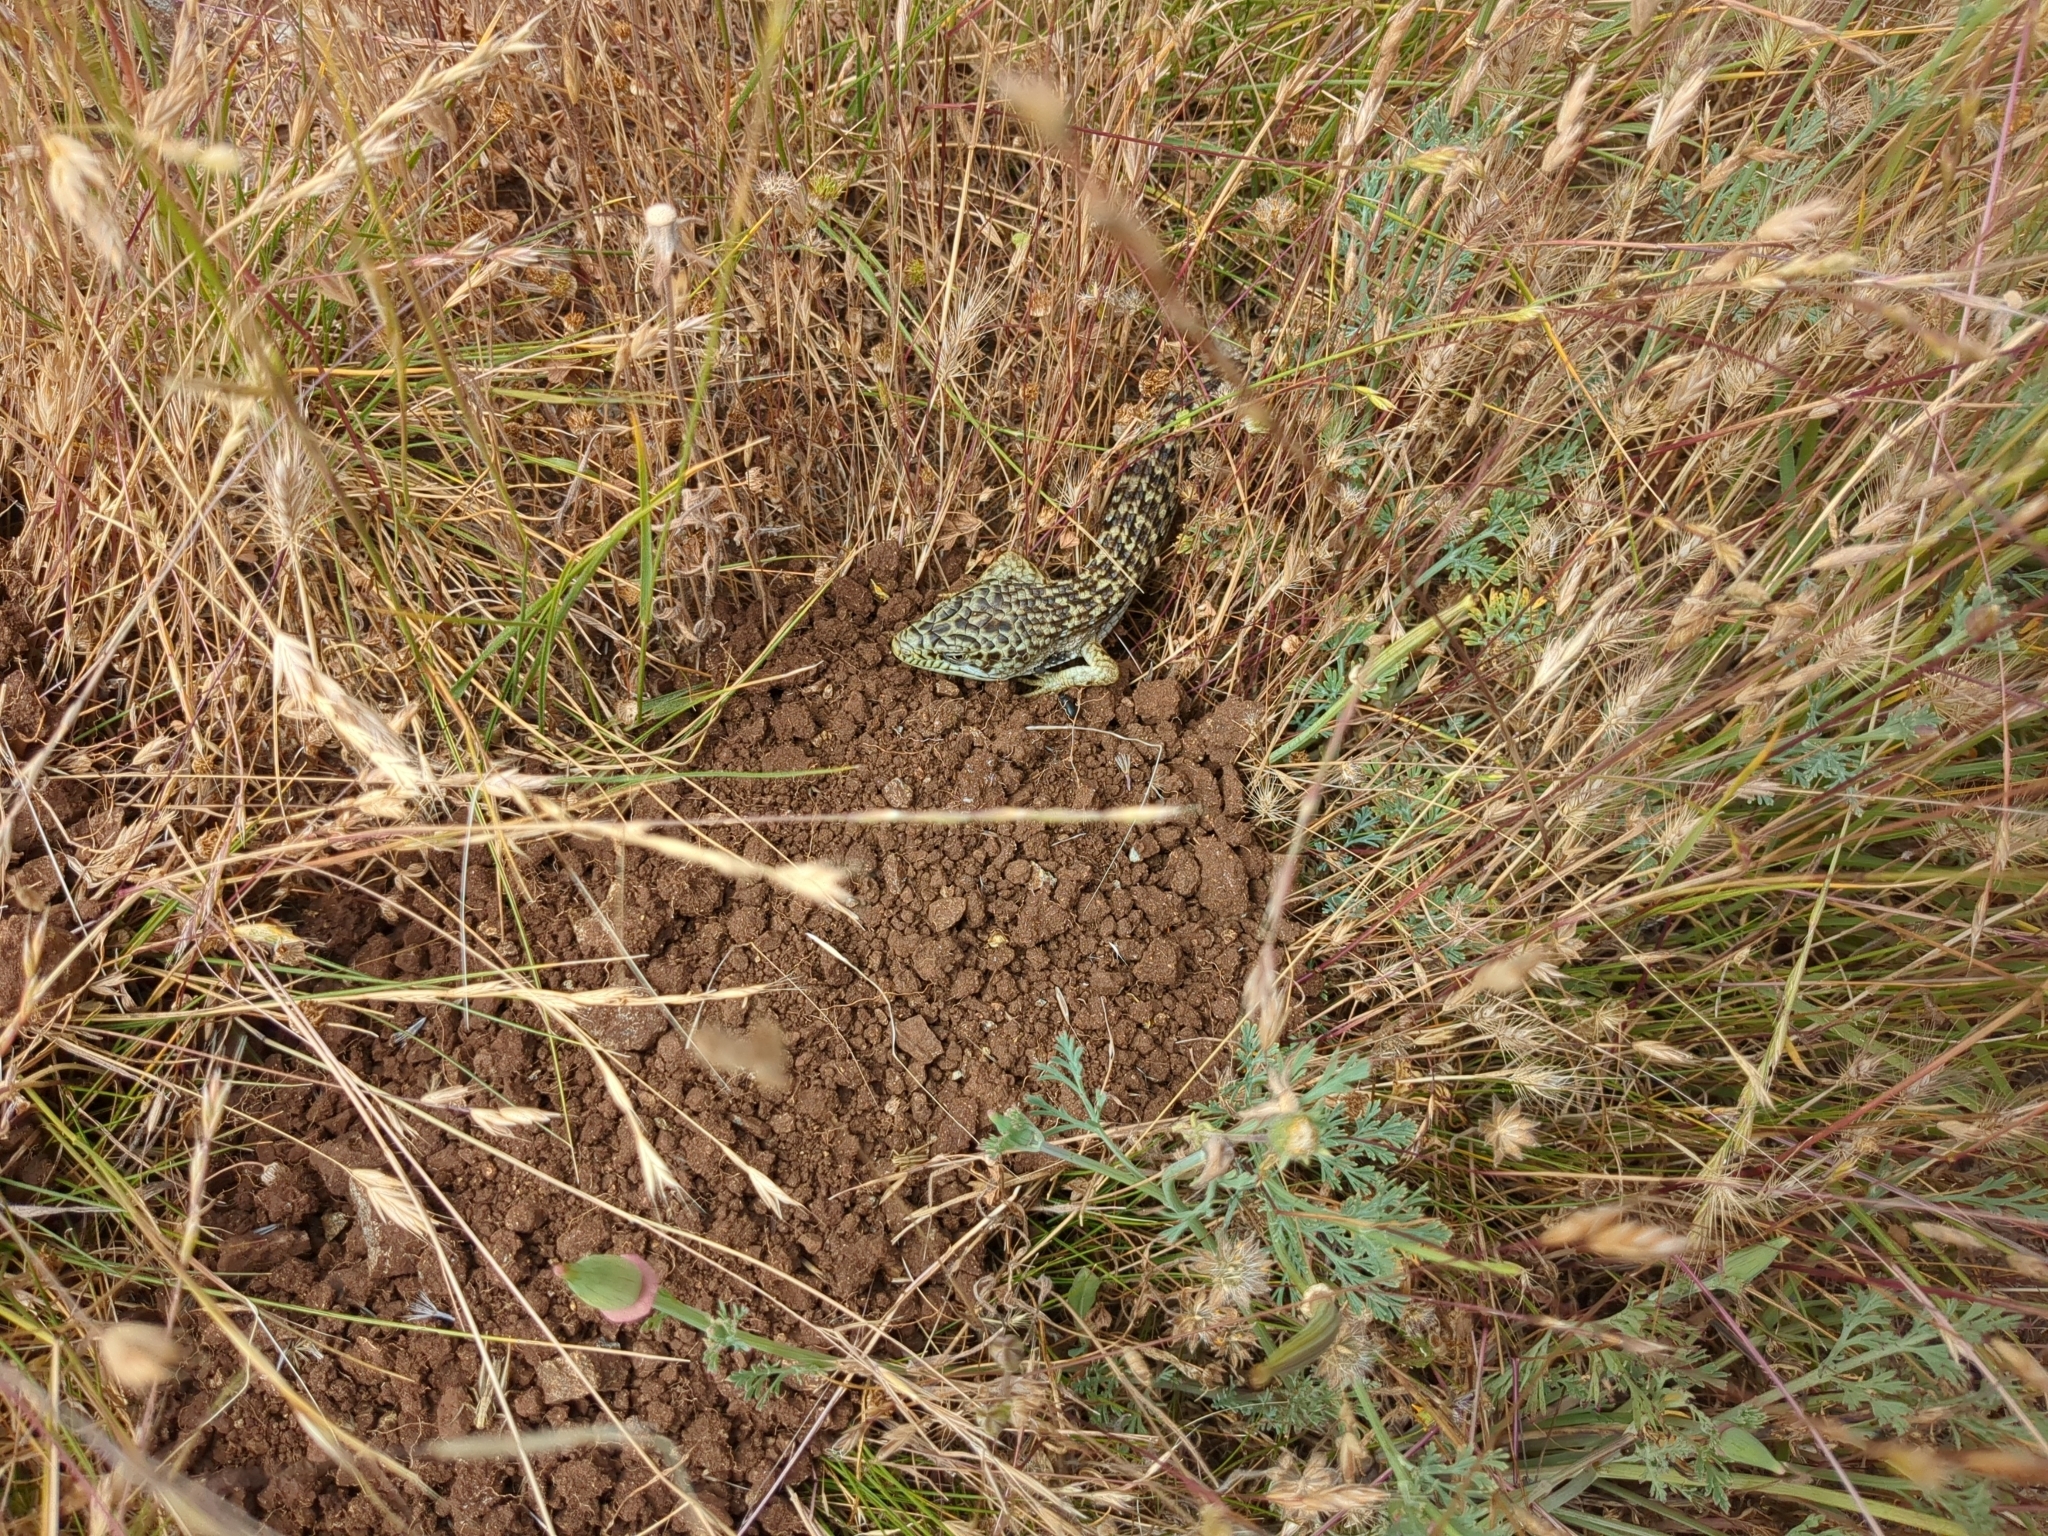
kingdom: Animalia
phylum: Chordata
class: Squamata
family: Anguidae
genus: Elgaria
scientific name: Elgaria multicarinata
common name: Southern alligator lizard
